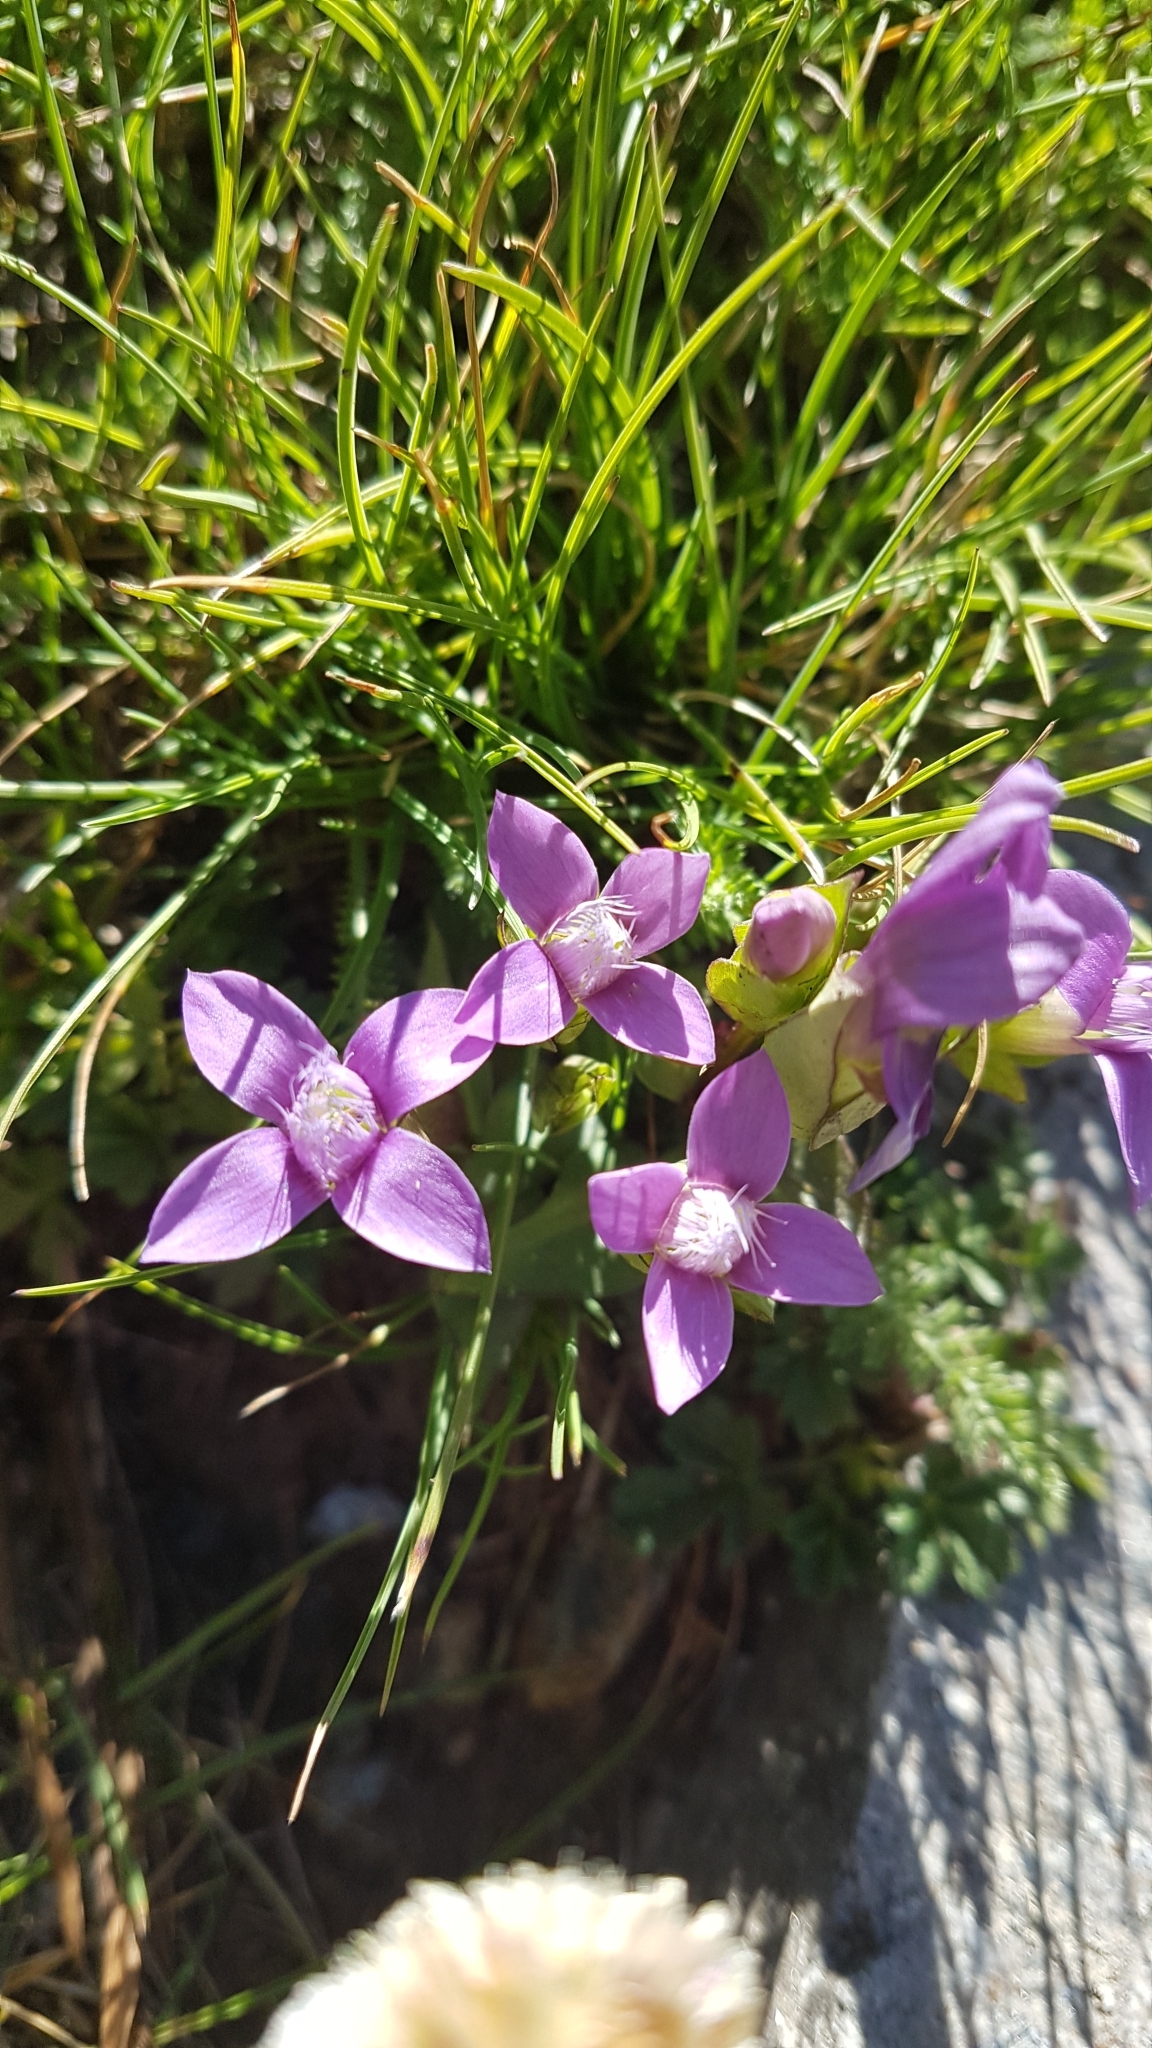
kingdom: Plantae
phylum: Tracheophyta
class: Magnoliopsida
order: Gentianales
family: Gentianaceae
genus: Gentianella
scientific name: Gentianella campestris
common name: Field gentian
